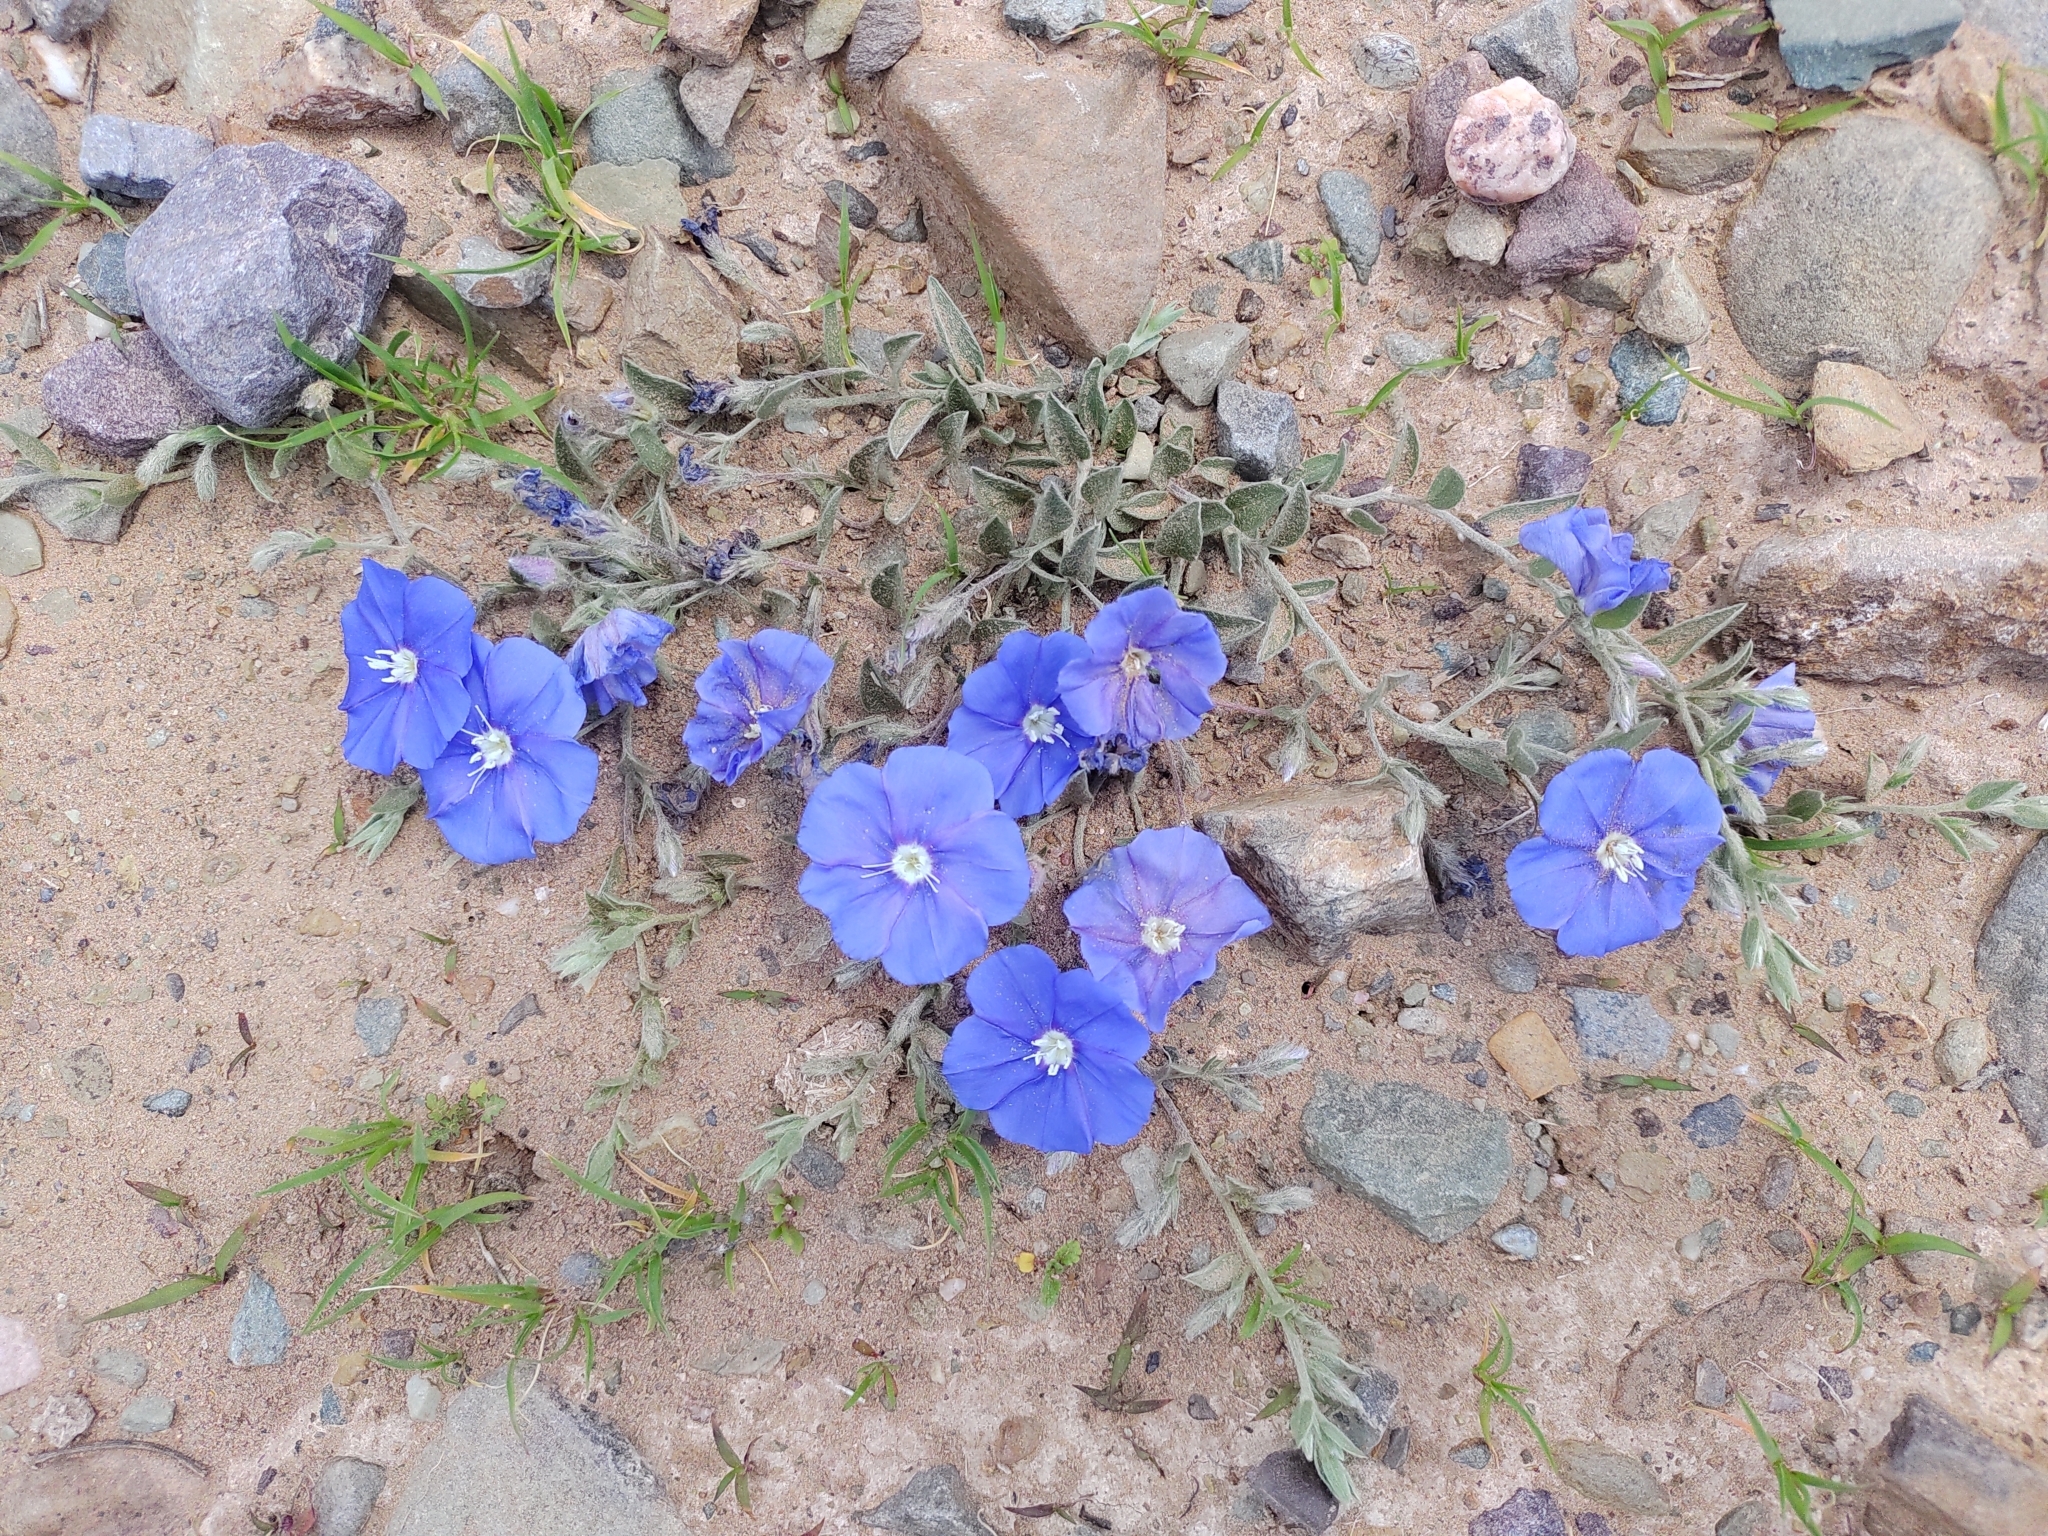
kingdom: Plantae
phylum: Tracheophyta
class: Magnoliopsida
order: Solanales
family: Convolvulaceae
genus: Evolvulus
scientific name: Evolvulus arizonicus
